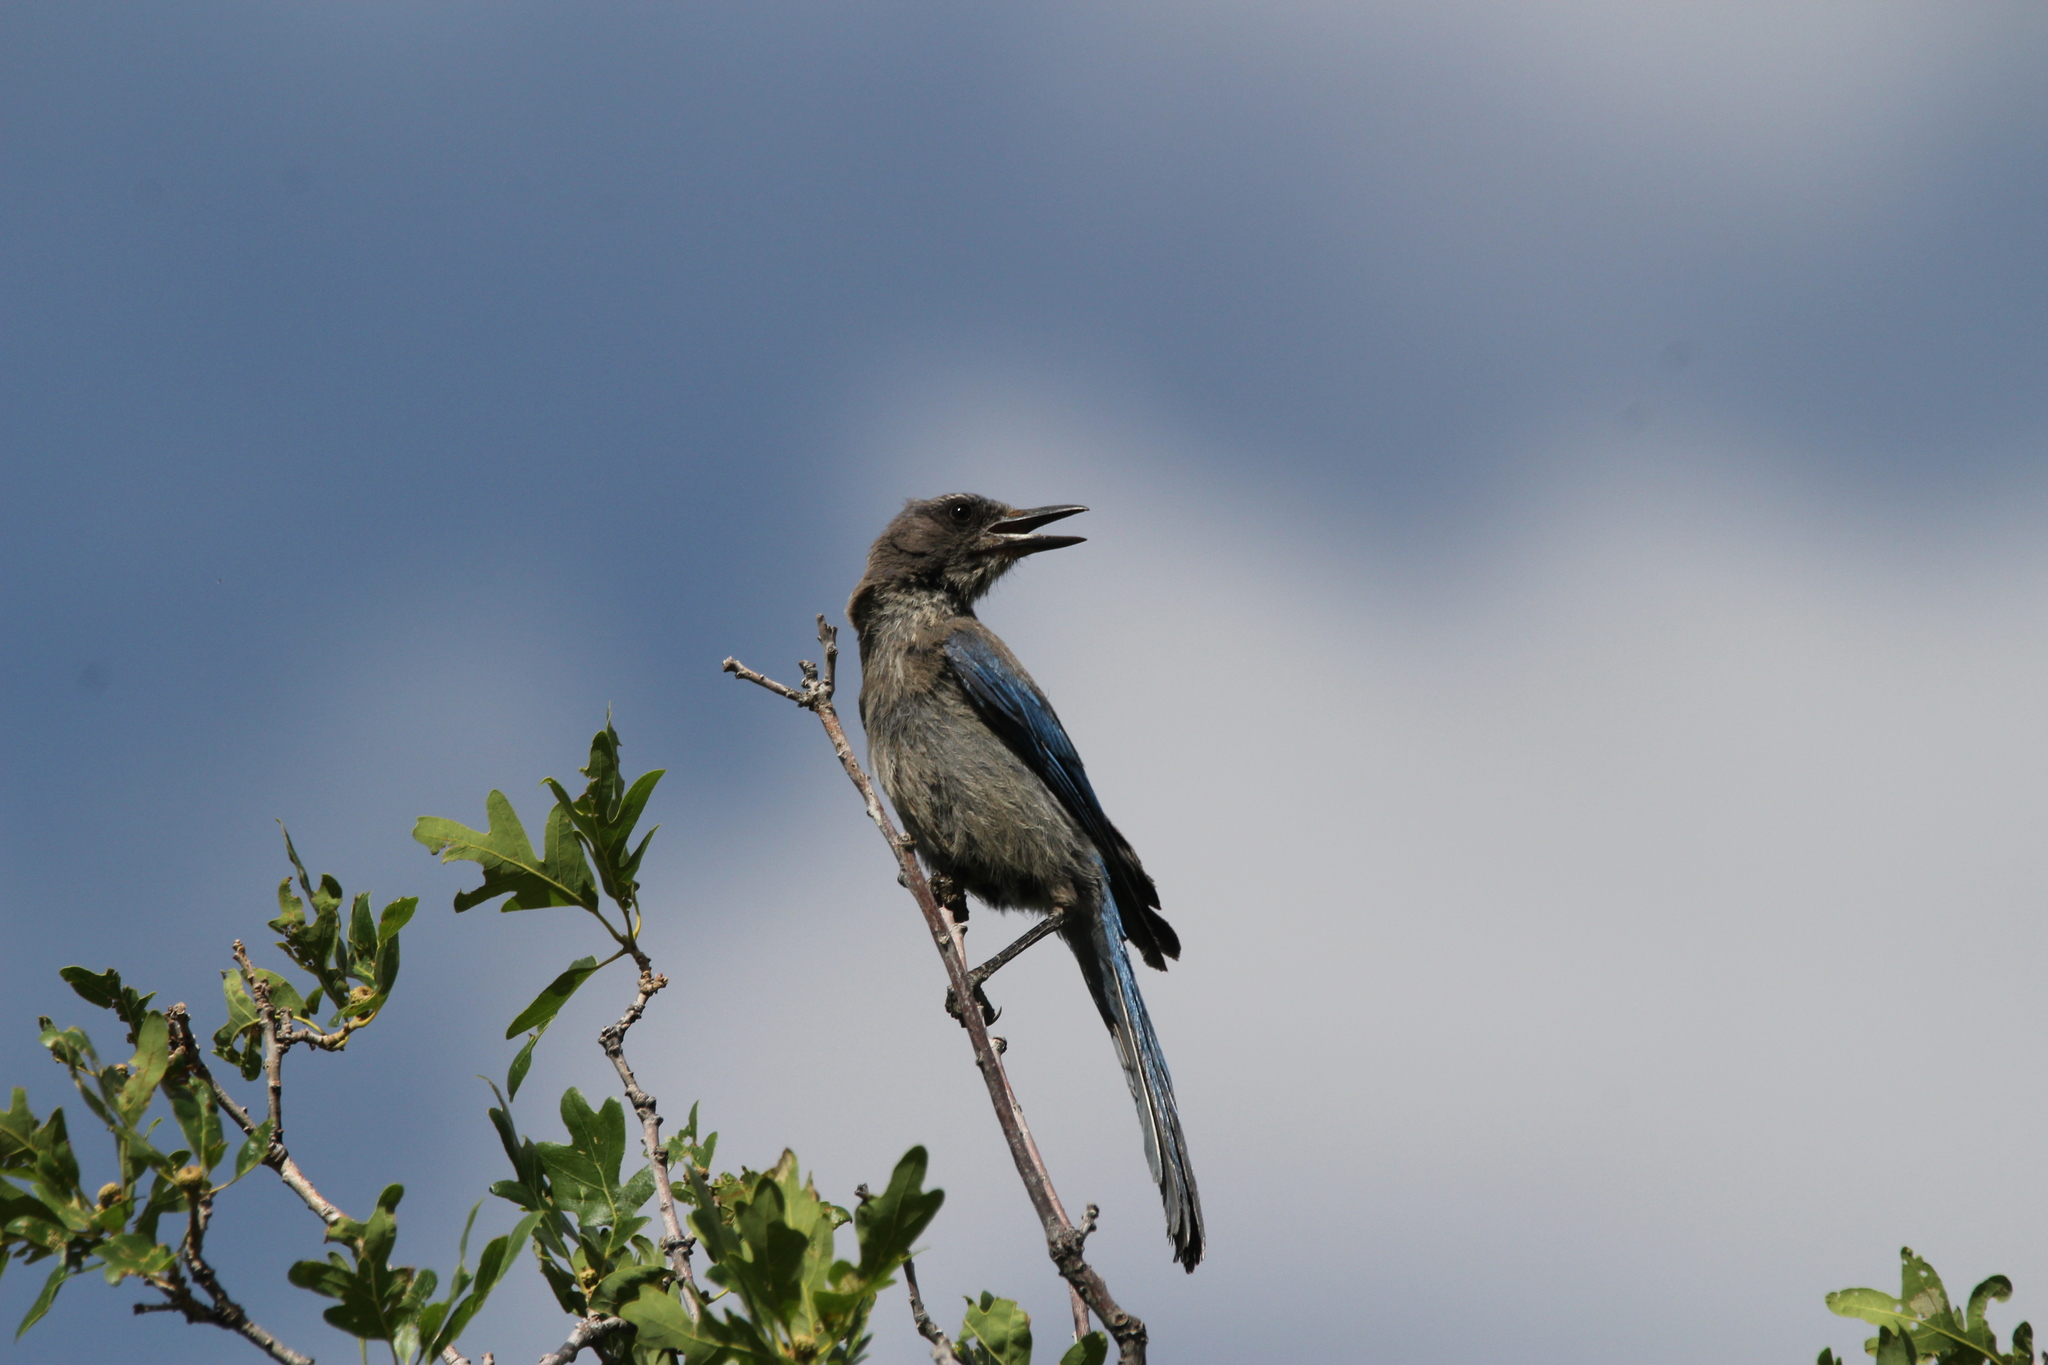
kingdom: Animalia
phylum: Chordata
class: Aves
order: Passeriformes
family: Corvidae
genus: Aphelocoma
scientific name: Aphelocoma woodhouseii
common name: Woodhouse's scrub-jay
